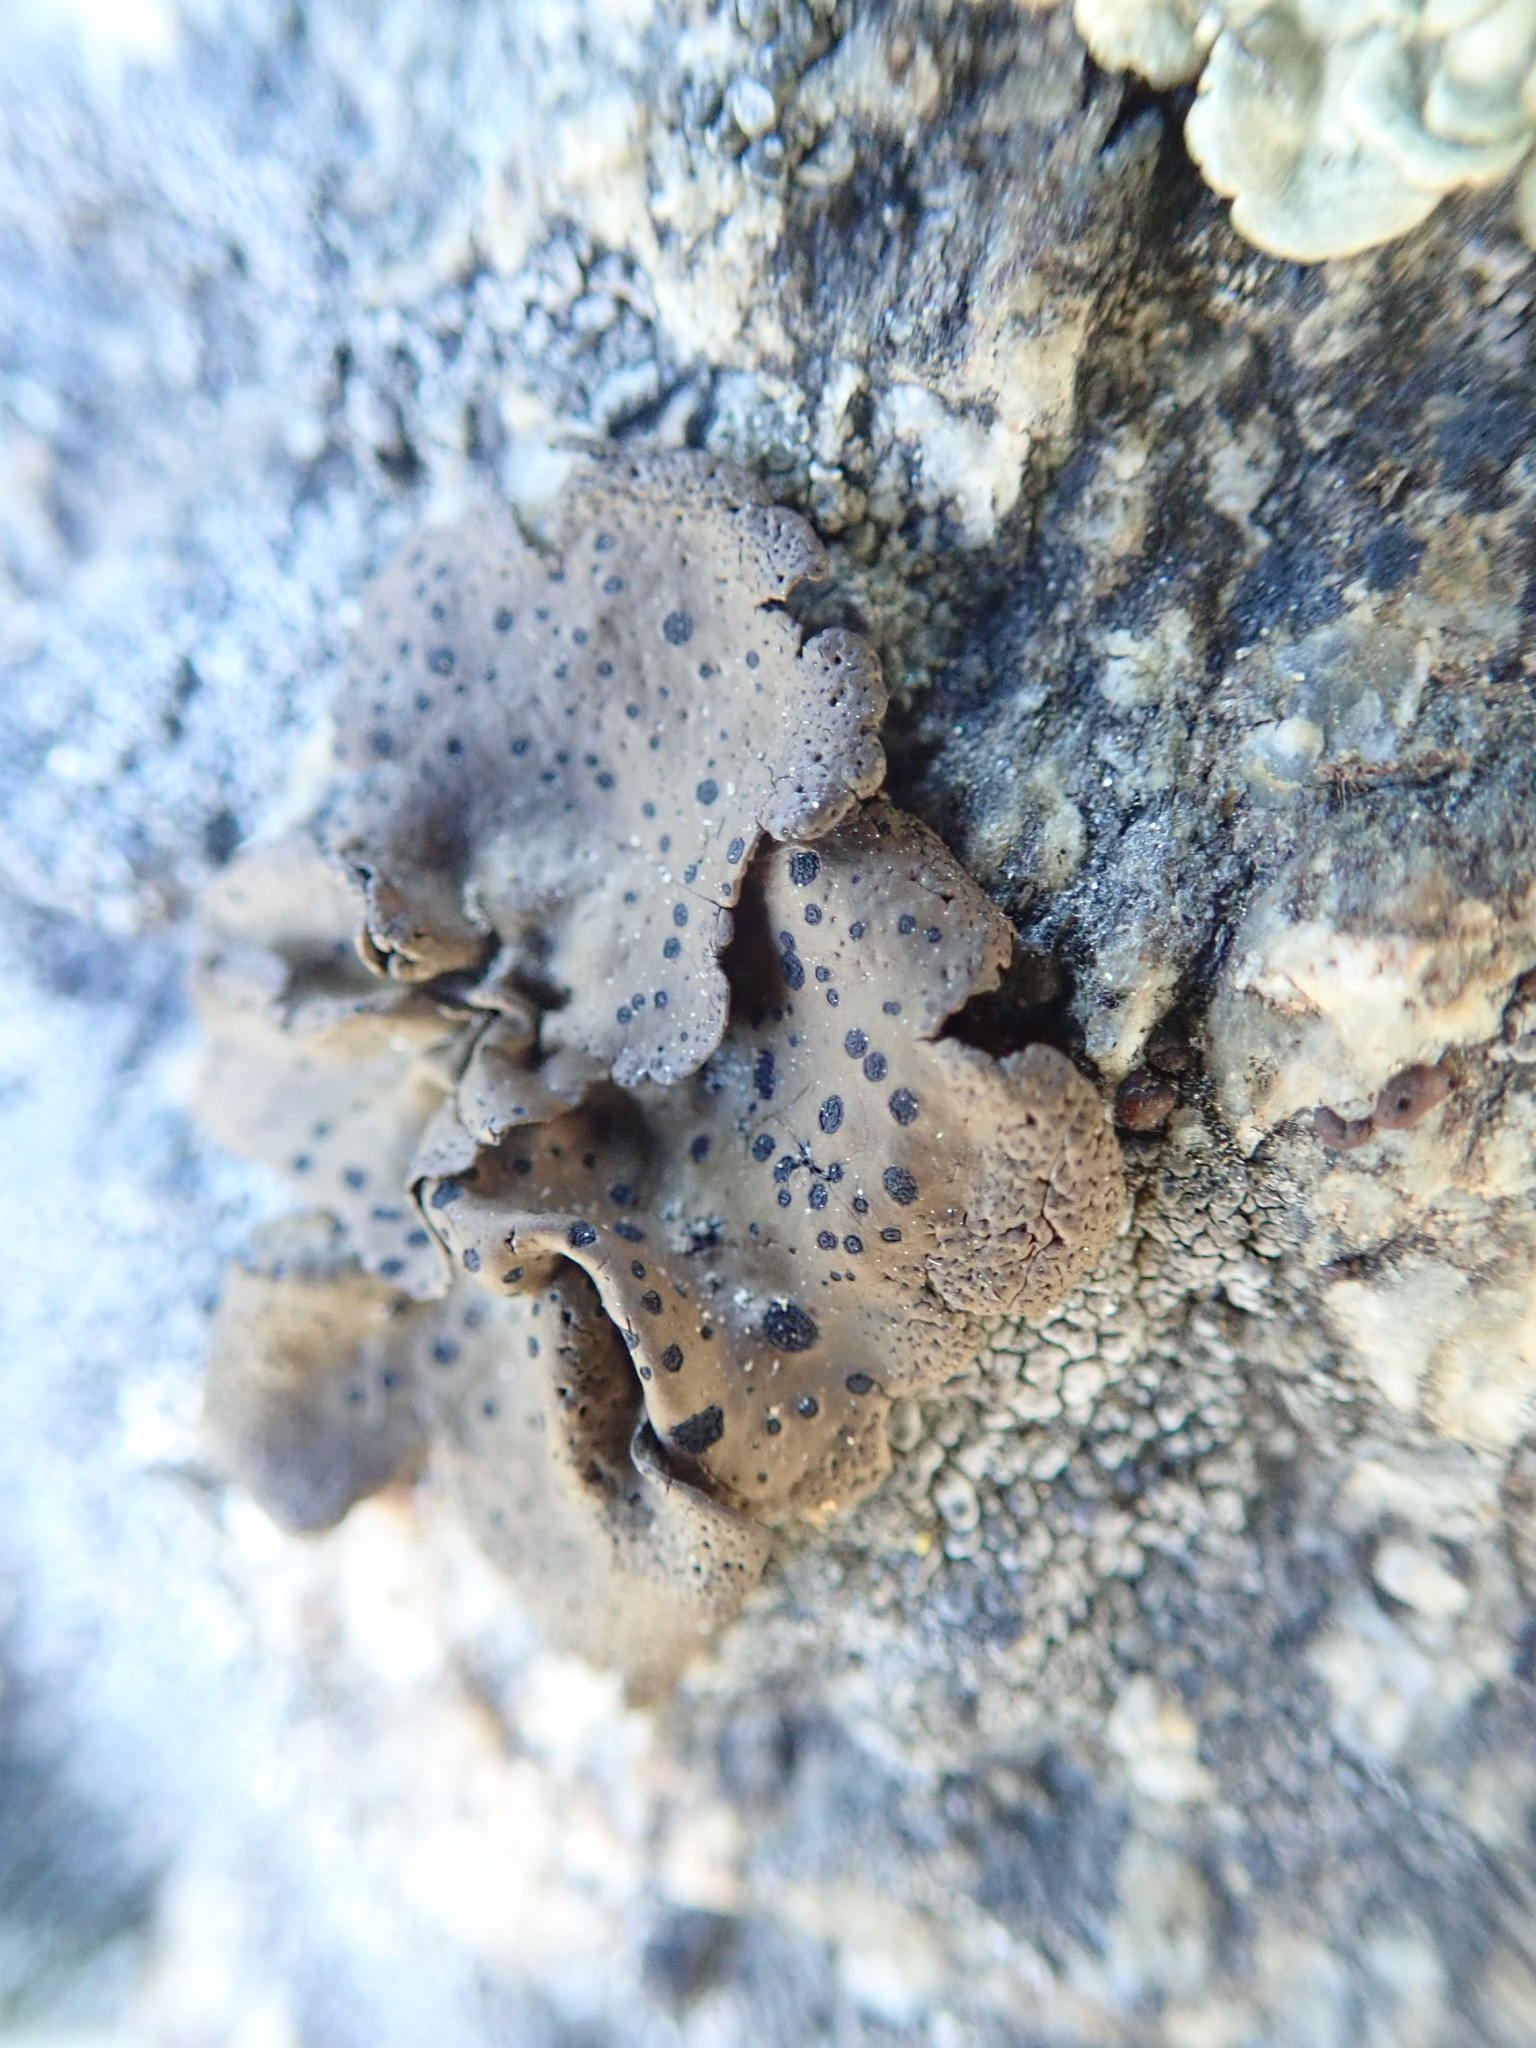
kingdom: Fungi
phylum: Ascomycota
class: Lecanoromycetes
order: Umbilicariales
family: Umbilicariaceae
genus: Umbilicaria
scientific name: Umbilicaria phaea
